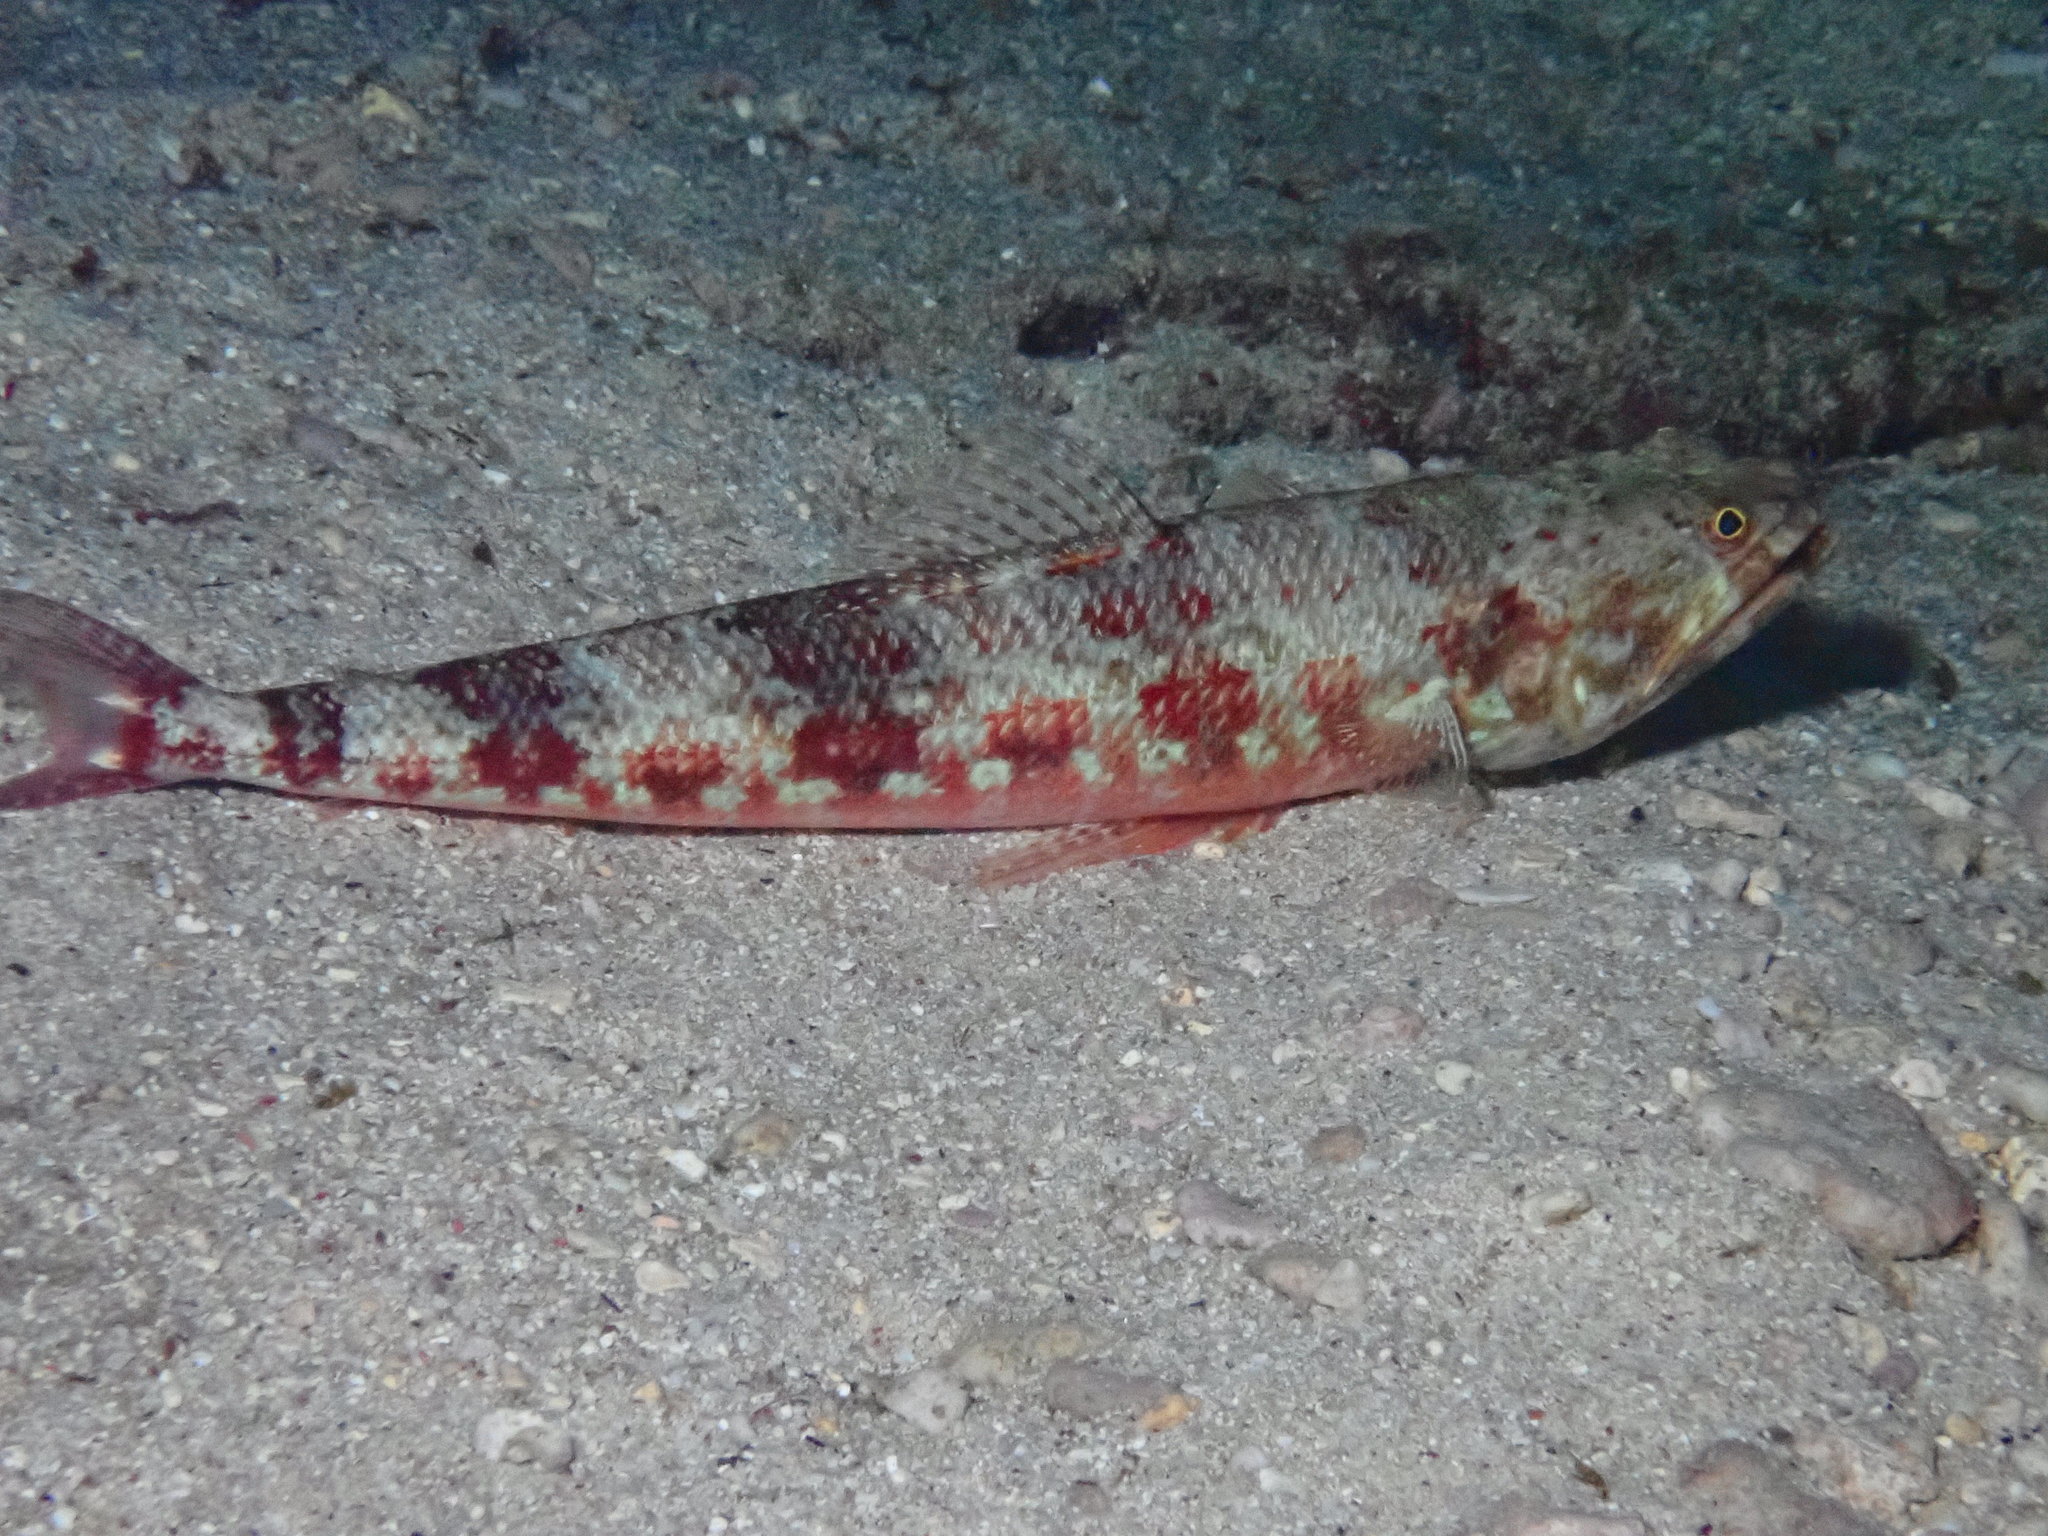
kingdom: Animalia
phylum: Chordata
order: Aulopiformes
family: Synodontidae
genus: Synodus
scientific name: Synodus variegatus
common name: Variegated lizardfish
